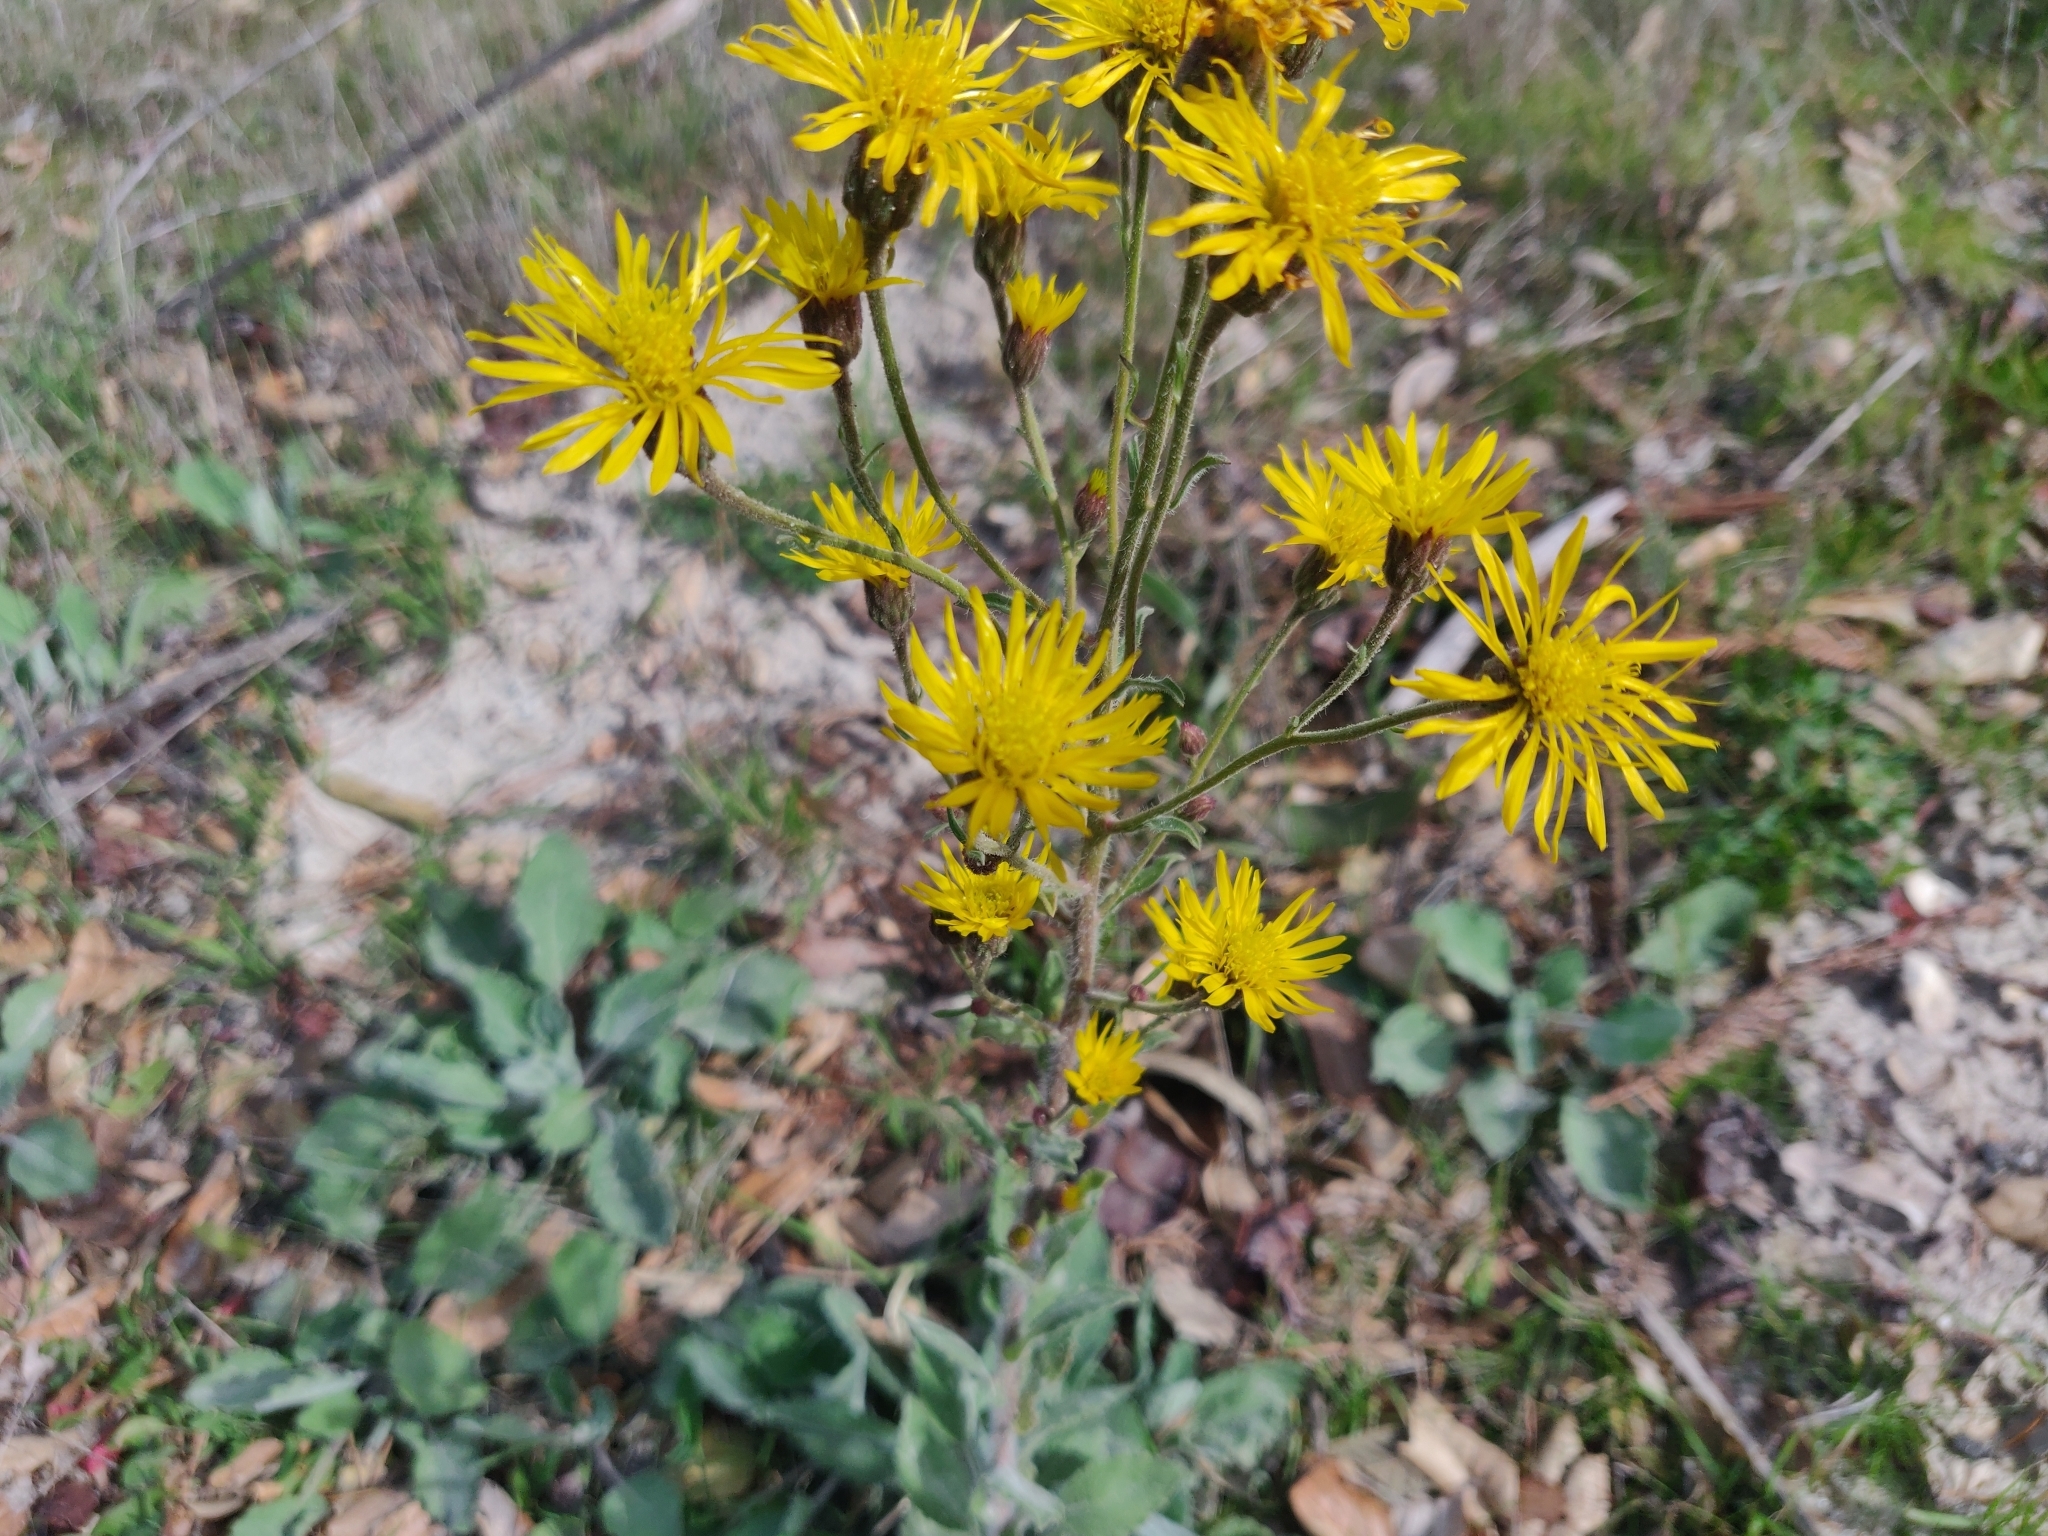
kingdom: Plantae
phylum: Tracheophyta
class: Magnoliopsida
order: Asterales
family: Asteraceae
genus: Heterotheca
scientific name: Heterotheca grandiflora
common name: Telegraphweed
